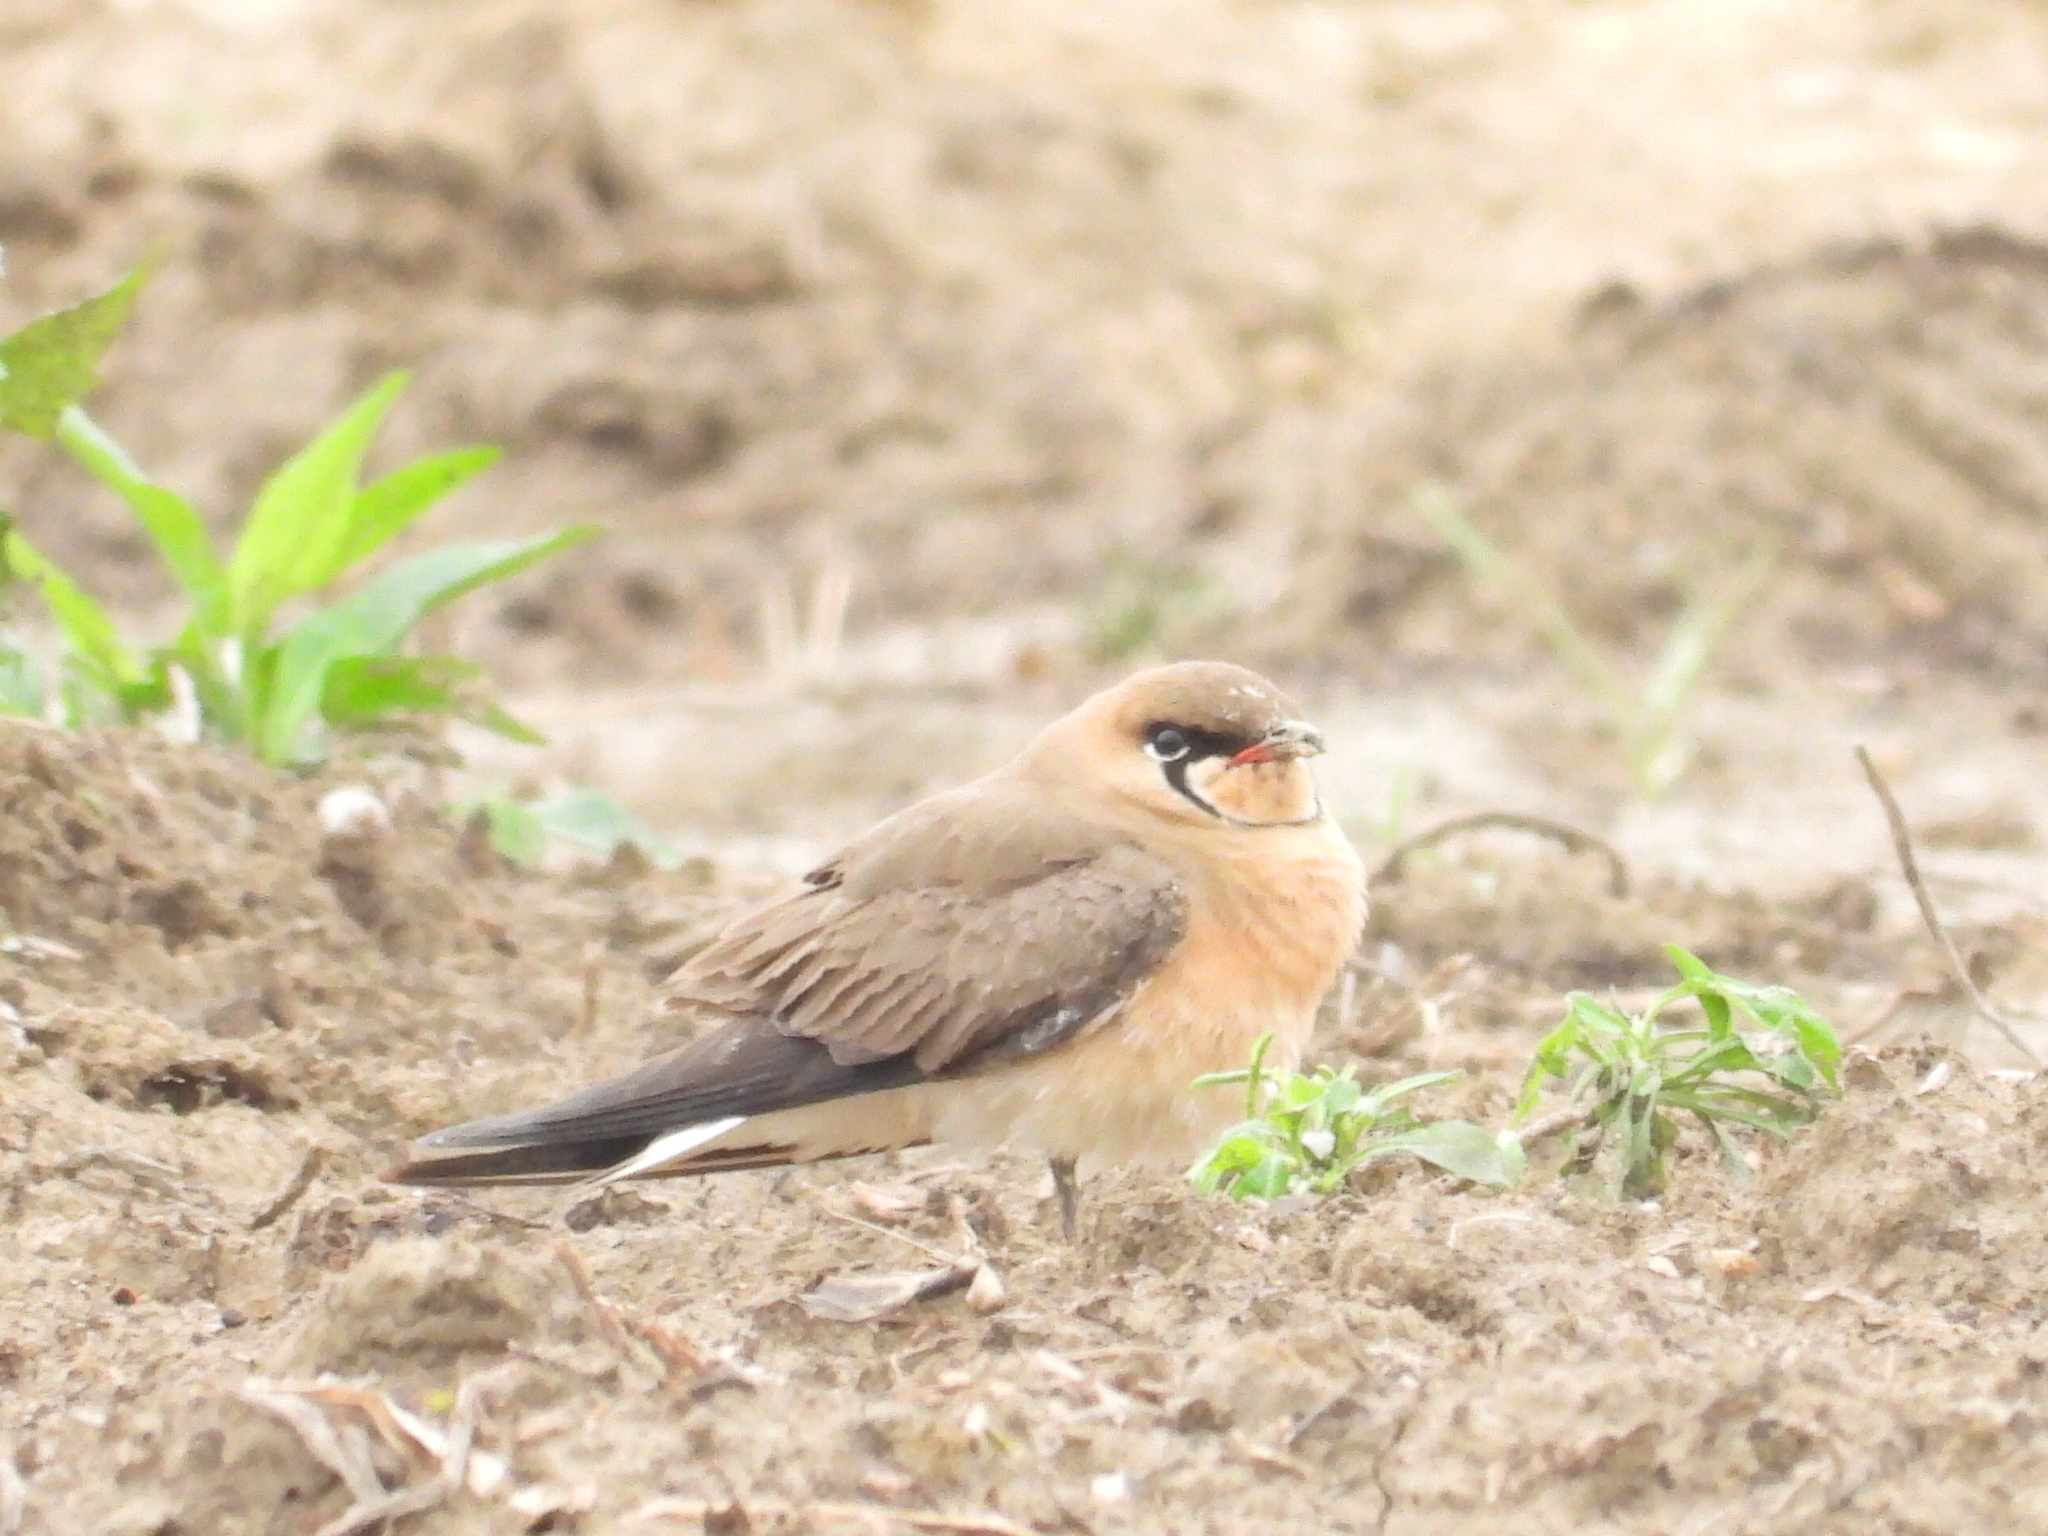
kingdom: Animalia
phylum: Chordata
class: Aves
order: Charadriiformes
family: Glareolidae
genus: Glareola
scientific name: Glareola maldivarum
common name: Oriental pratincole
